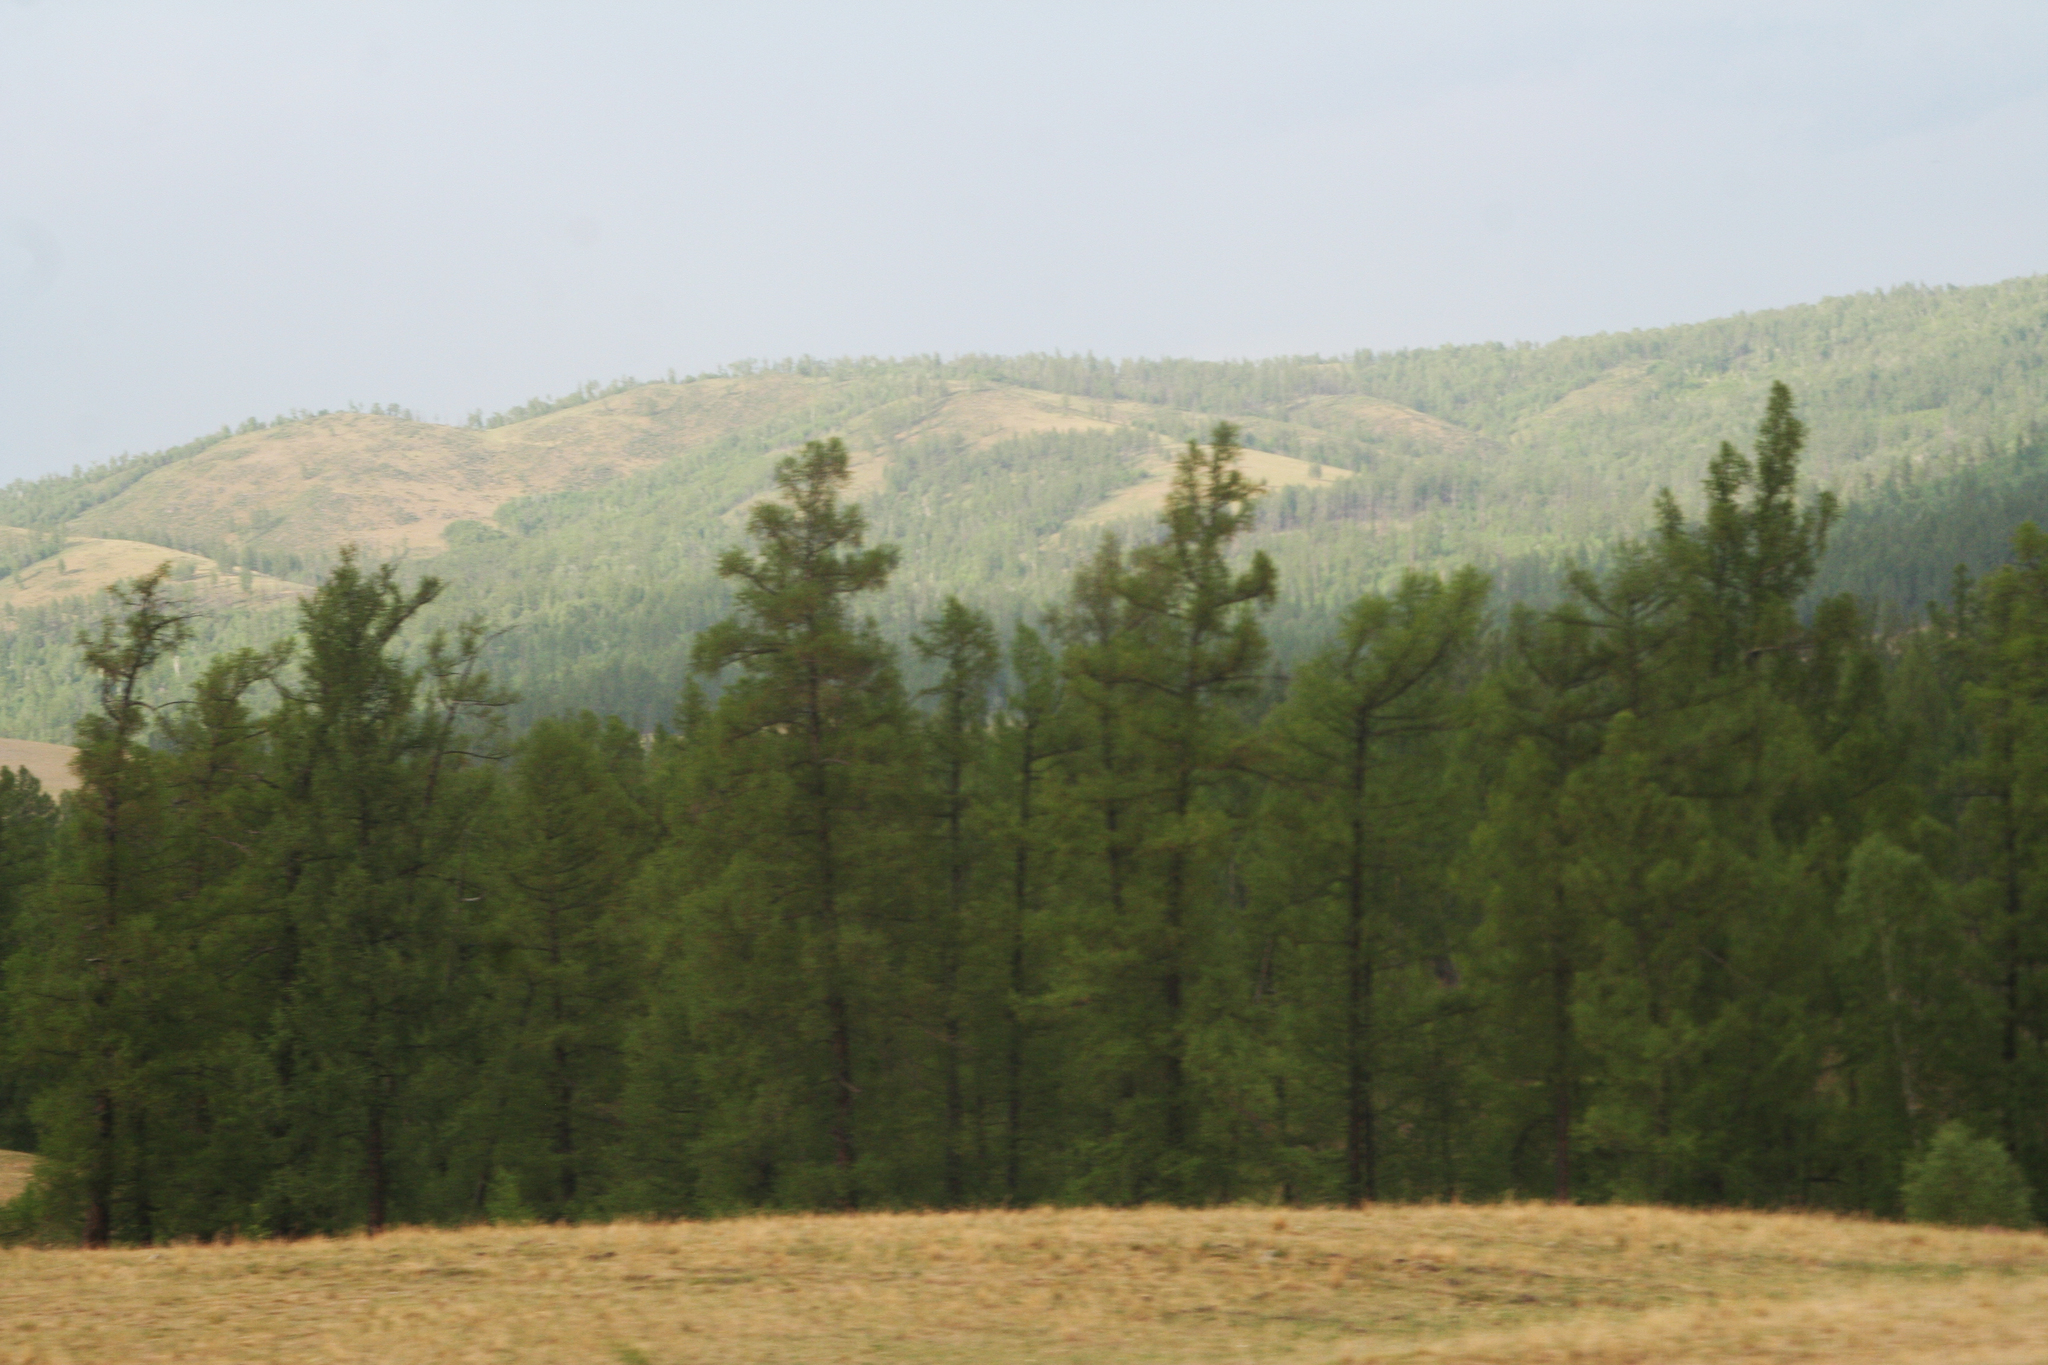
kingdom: Plantae
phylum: Tracheophyta
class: Pinopsida
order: Pinales
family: Pinaceae
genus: Larix
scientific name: Larix sibirica
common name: Siberian larch
